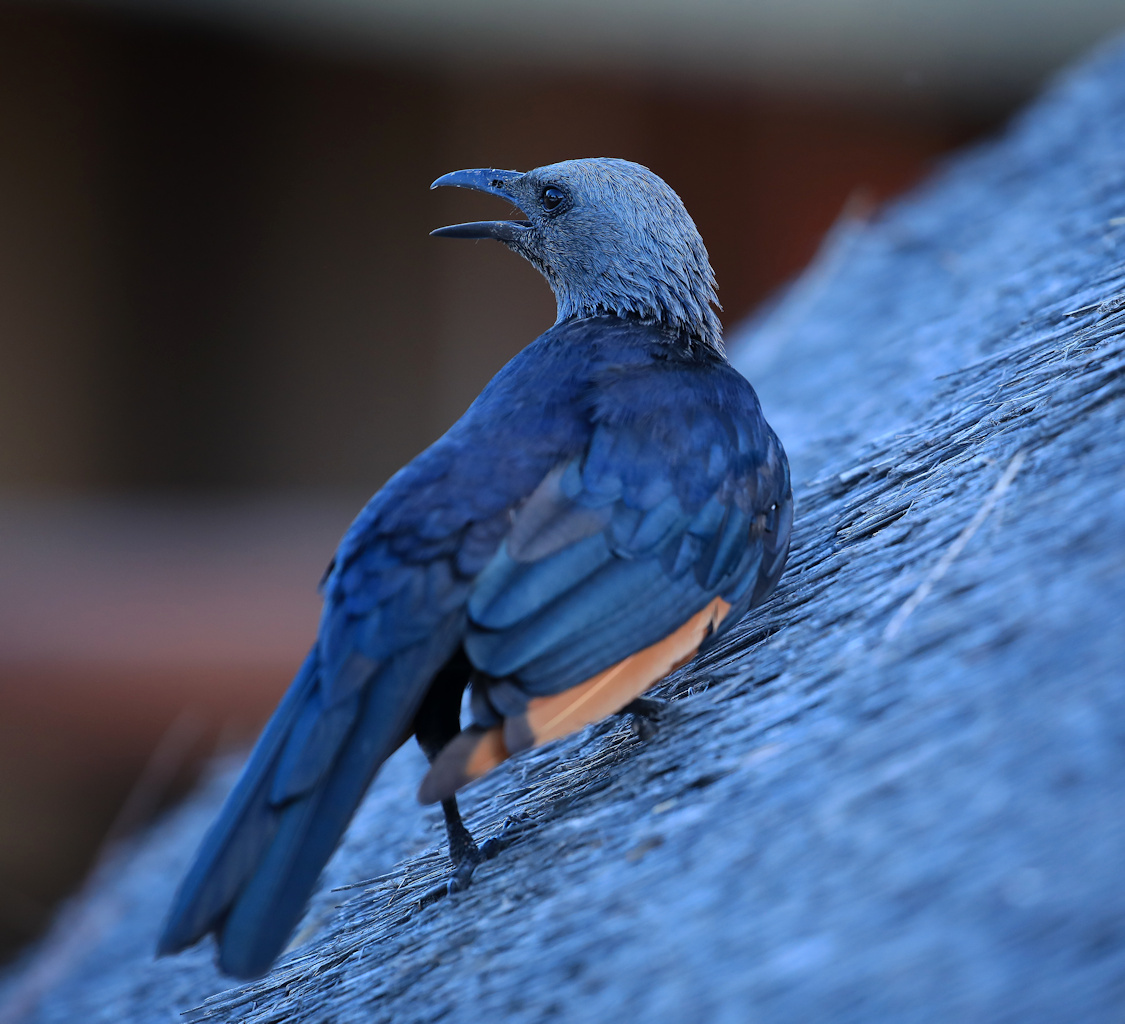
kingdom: Animalia
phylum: Chordata
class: Aves
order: Passeriformes
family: Sturnidae
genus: Onychognathus
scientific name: Onychognathus morio
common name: Red-winged starling
